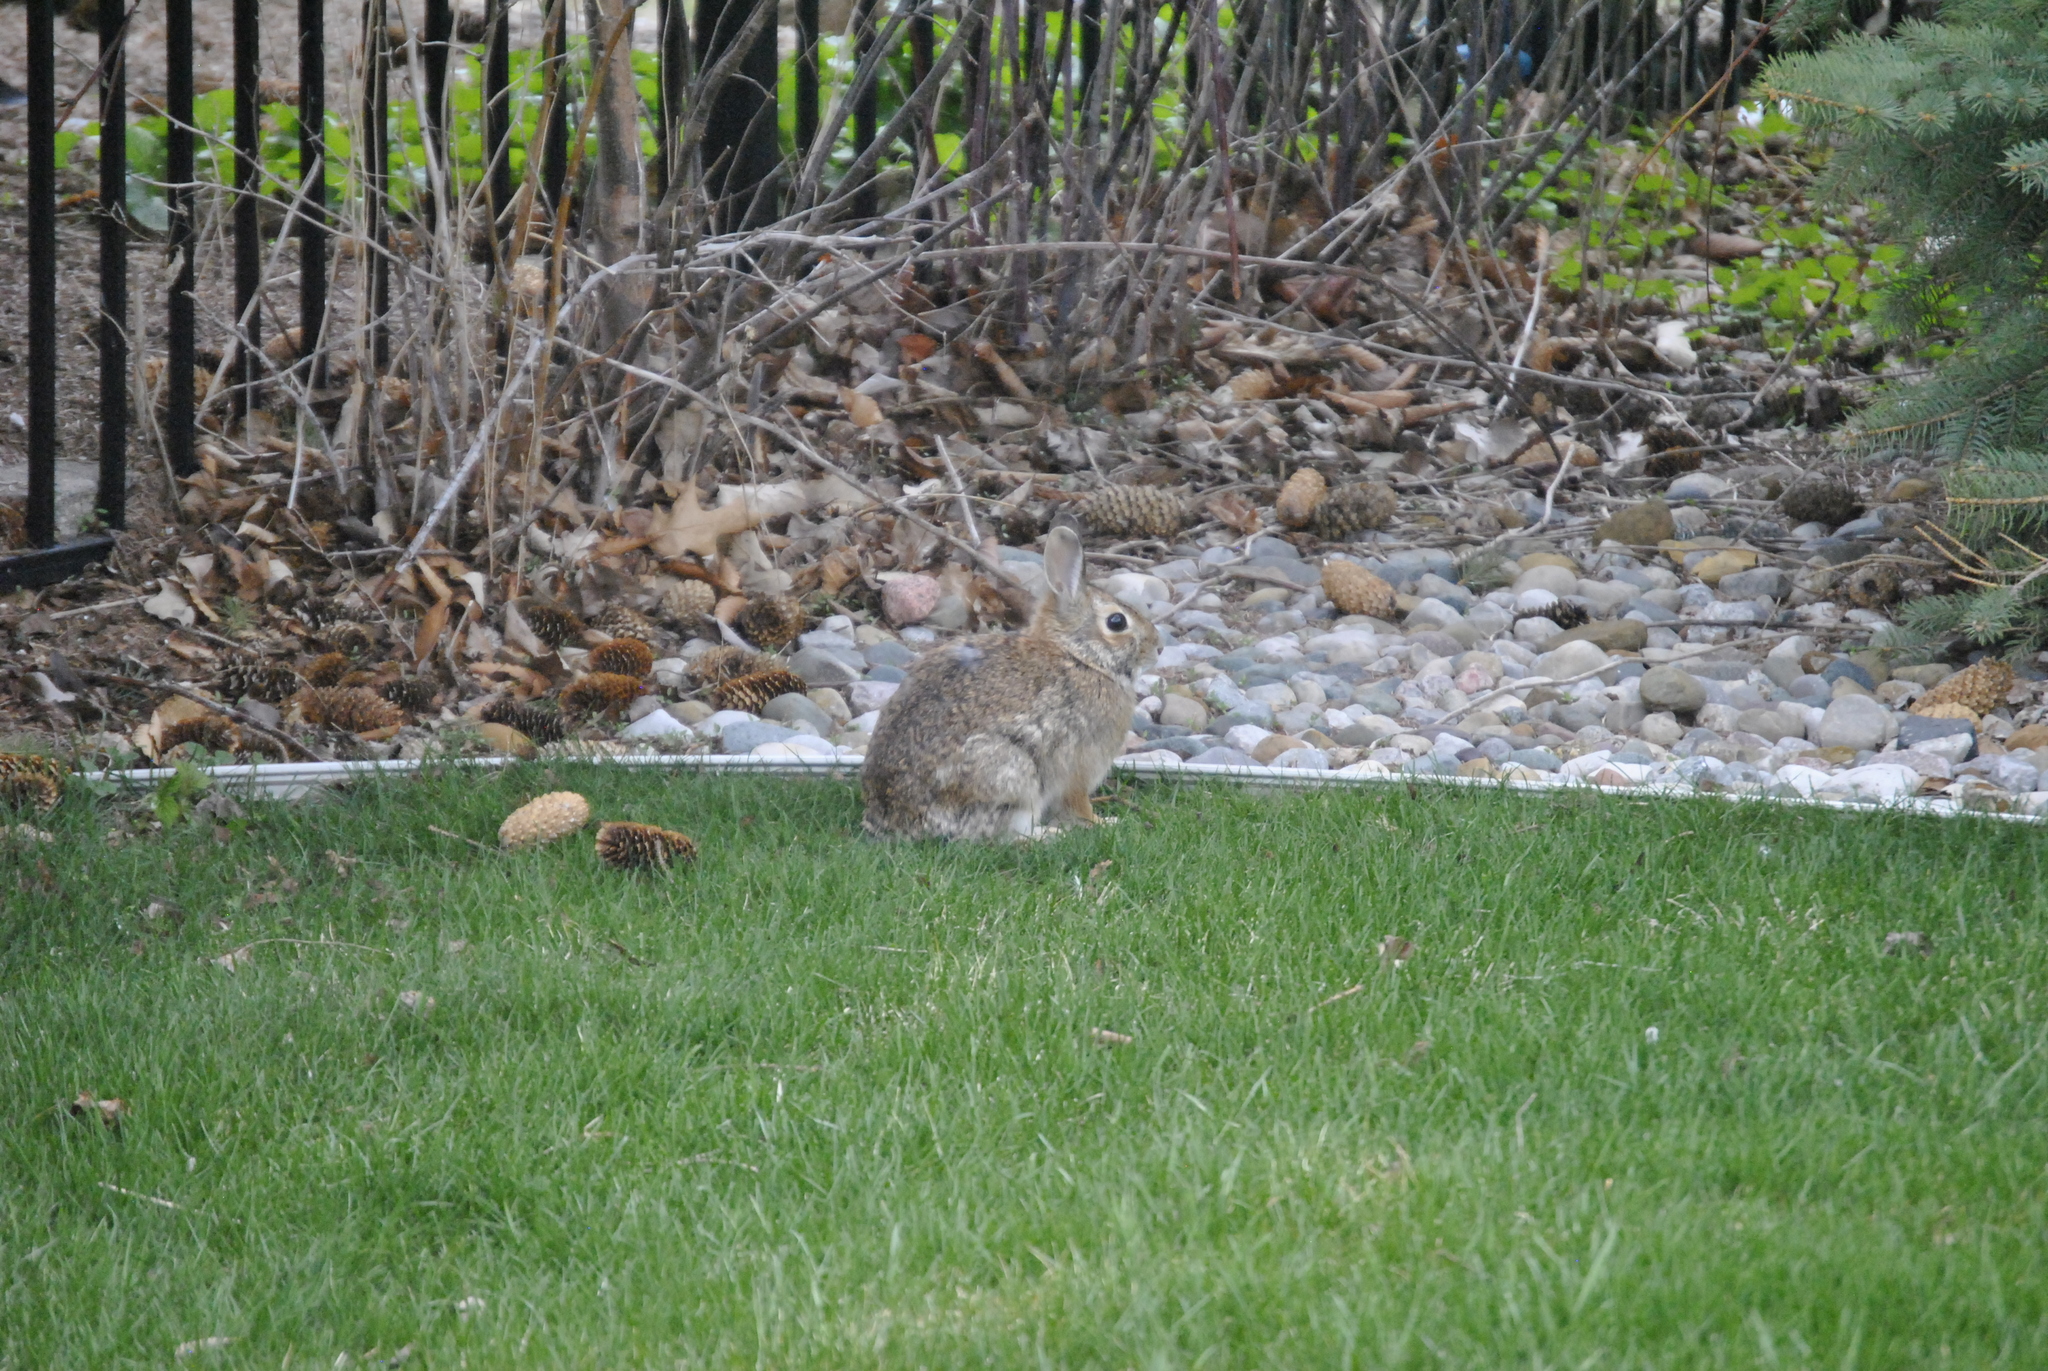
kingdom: Animalia
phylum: Chordata
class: Mammalia
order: Lagomorpha
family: Leporidae
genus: Sylvilagus
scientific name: Sylvilagus floridanus
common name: Eastern cottontail
